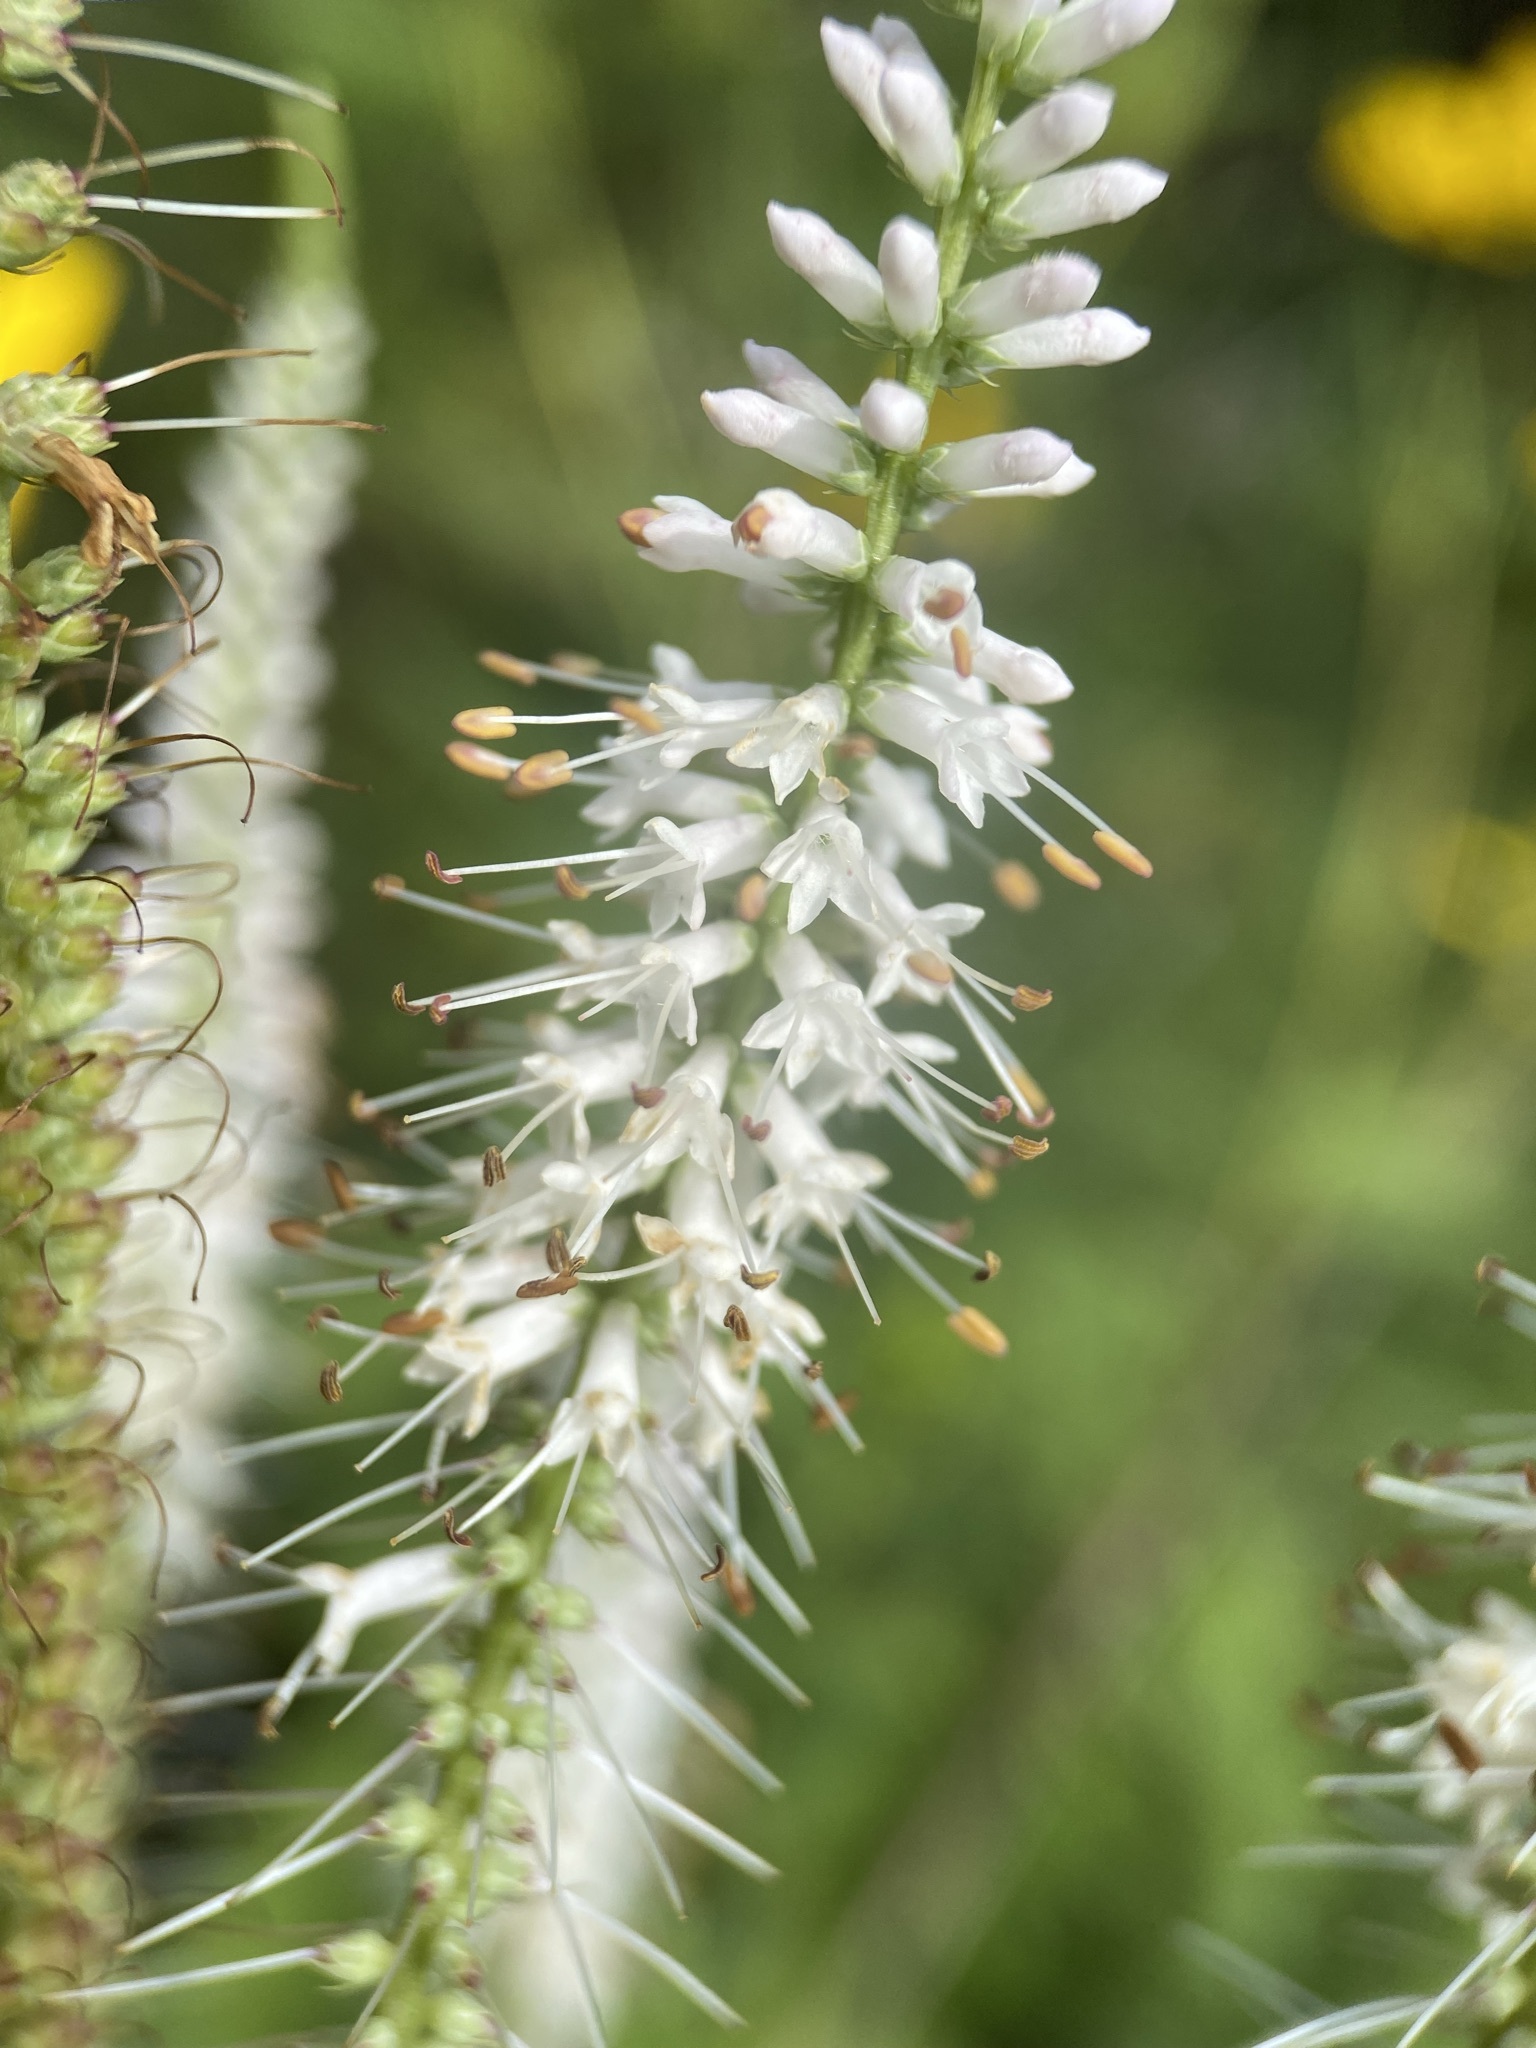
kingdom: Plantae
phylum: Tracheophyta
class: Magnoliopsida
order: Lamiales
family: Plantaginaceae
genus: Veronicastrum
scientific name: Veronicastrum virginicum
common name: Blackroot
